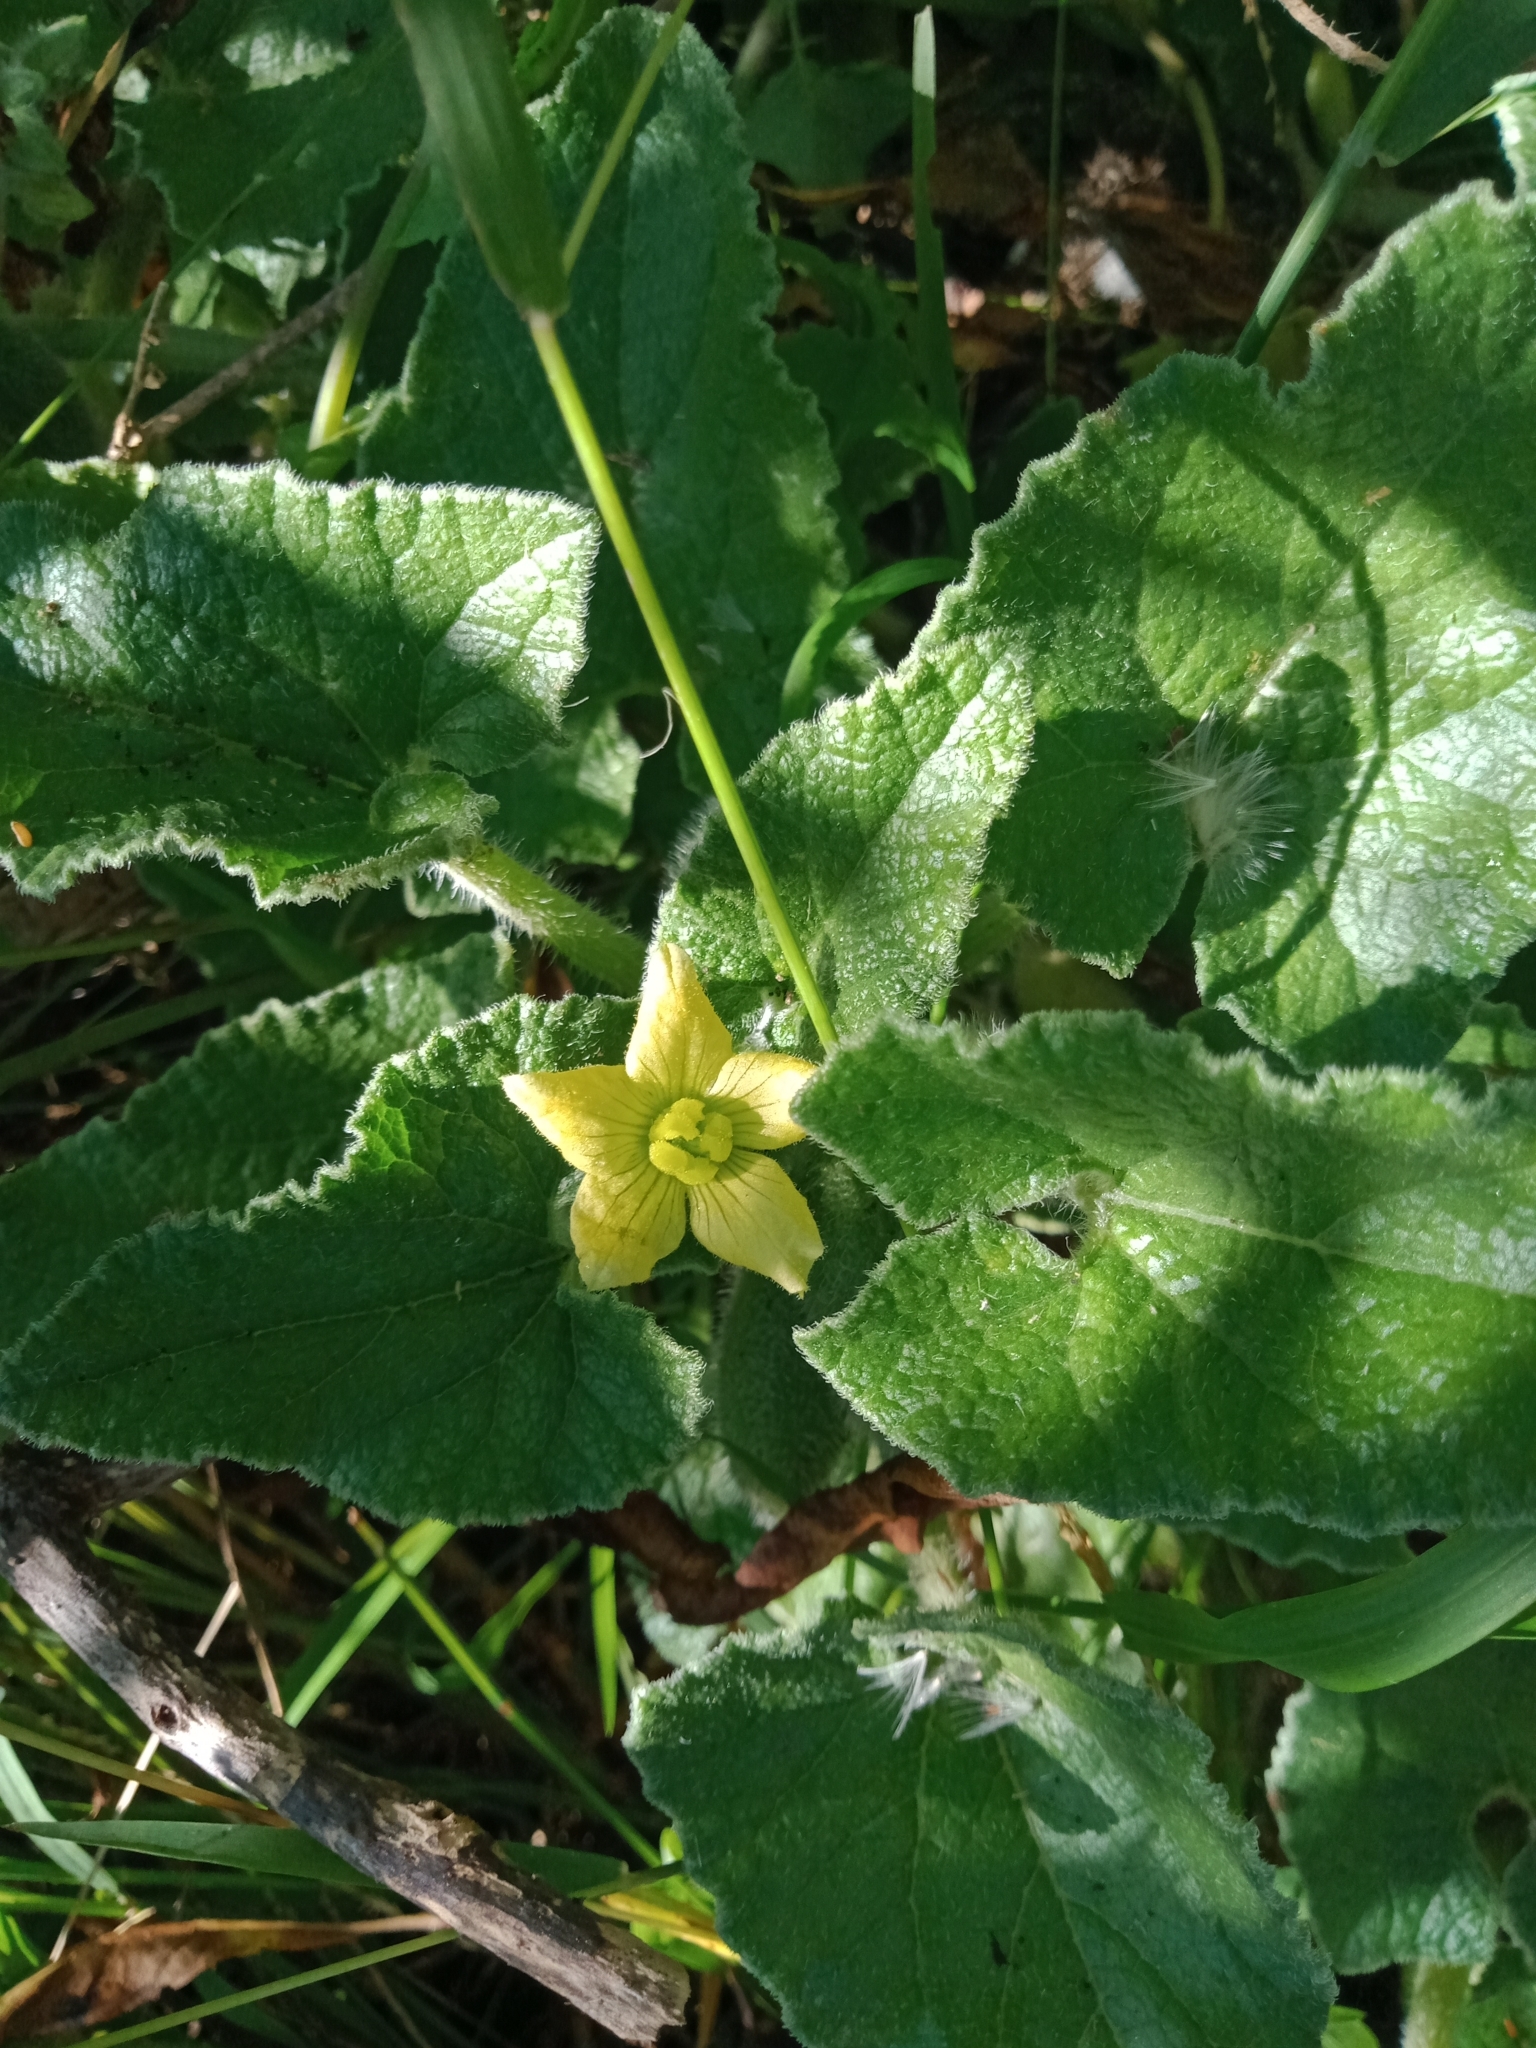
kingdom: Plantae
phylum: Tracheophyta
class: Magnoliopsida
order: Cucurbitales
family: Cucurbitaceae
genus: Ecballium
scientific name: Ecballium elaterium
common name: Squirting cucumber
